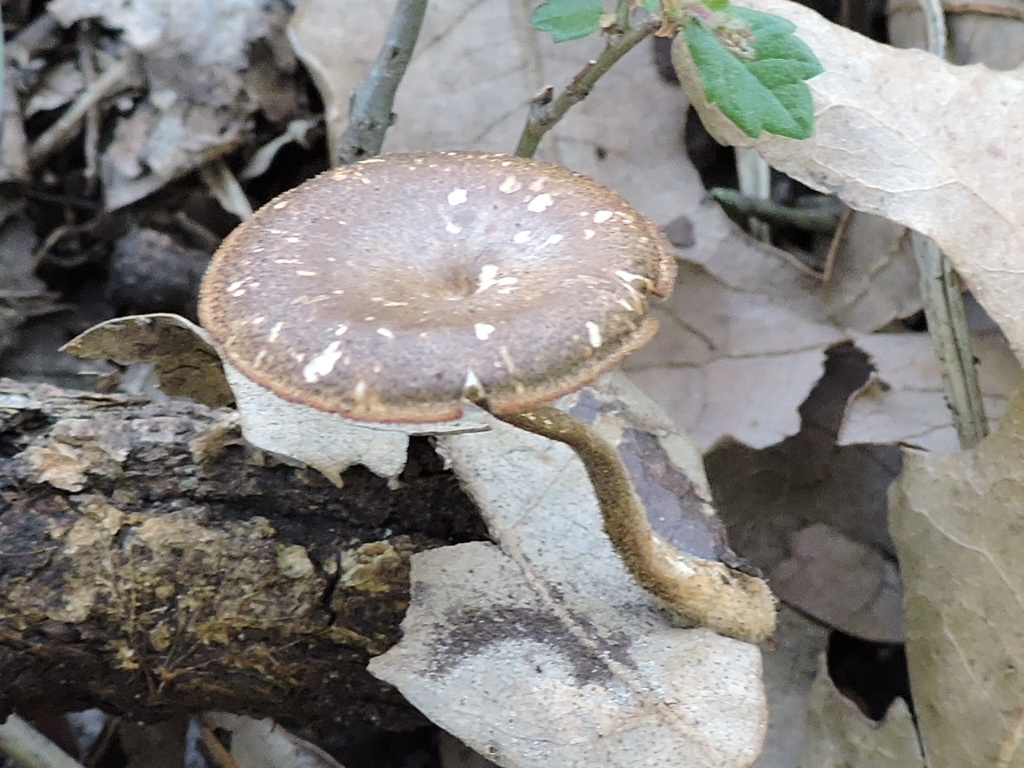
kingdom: Fungi
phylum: Basidiomycota
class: Agaricomycetes
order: Polyporales
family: Polyporaceae
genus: Lentinus
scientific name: Lentinus brumalis
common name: Winter polypore
